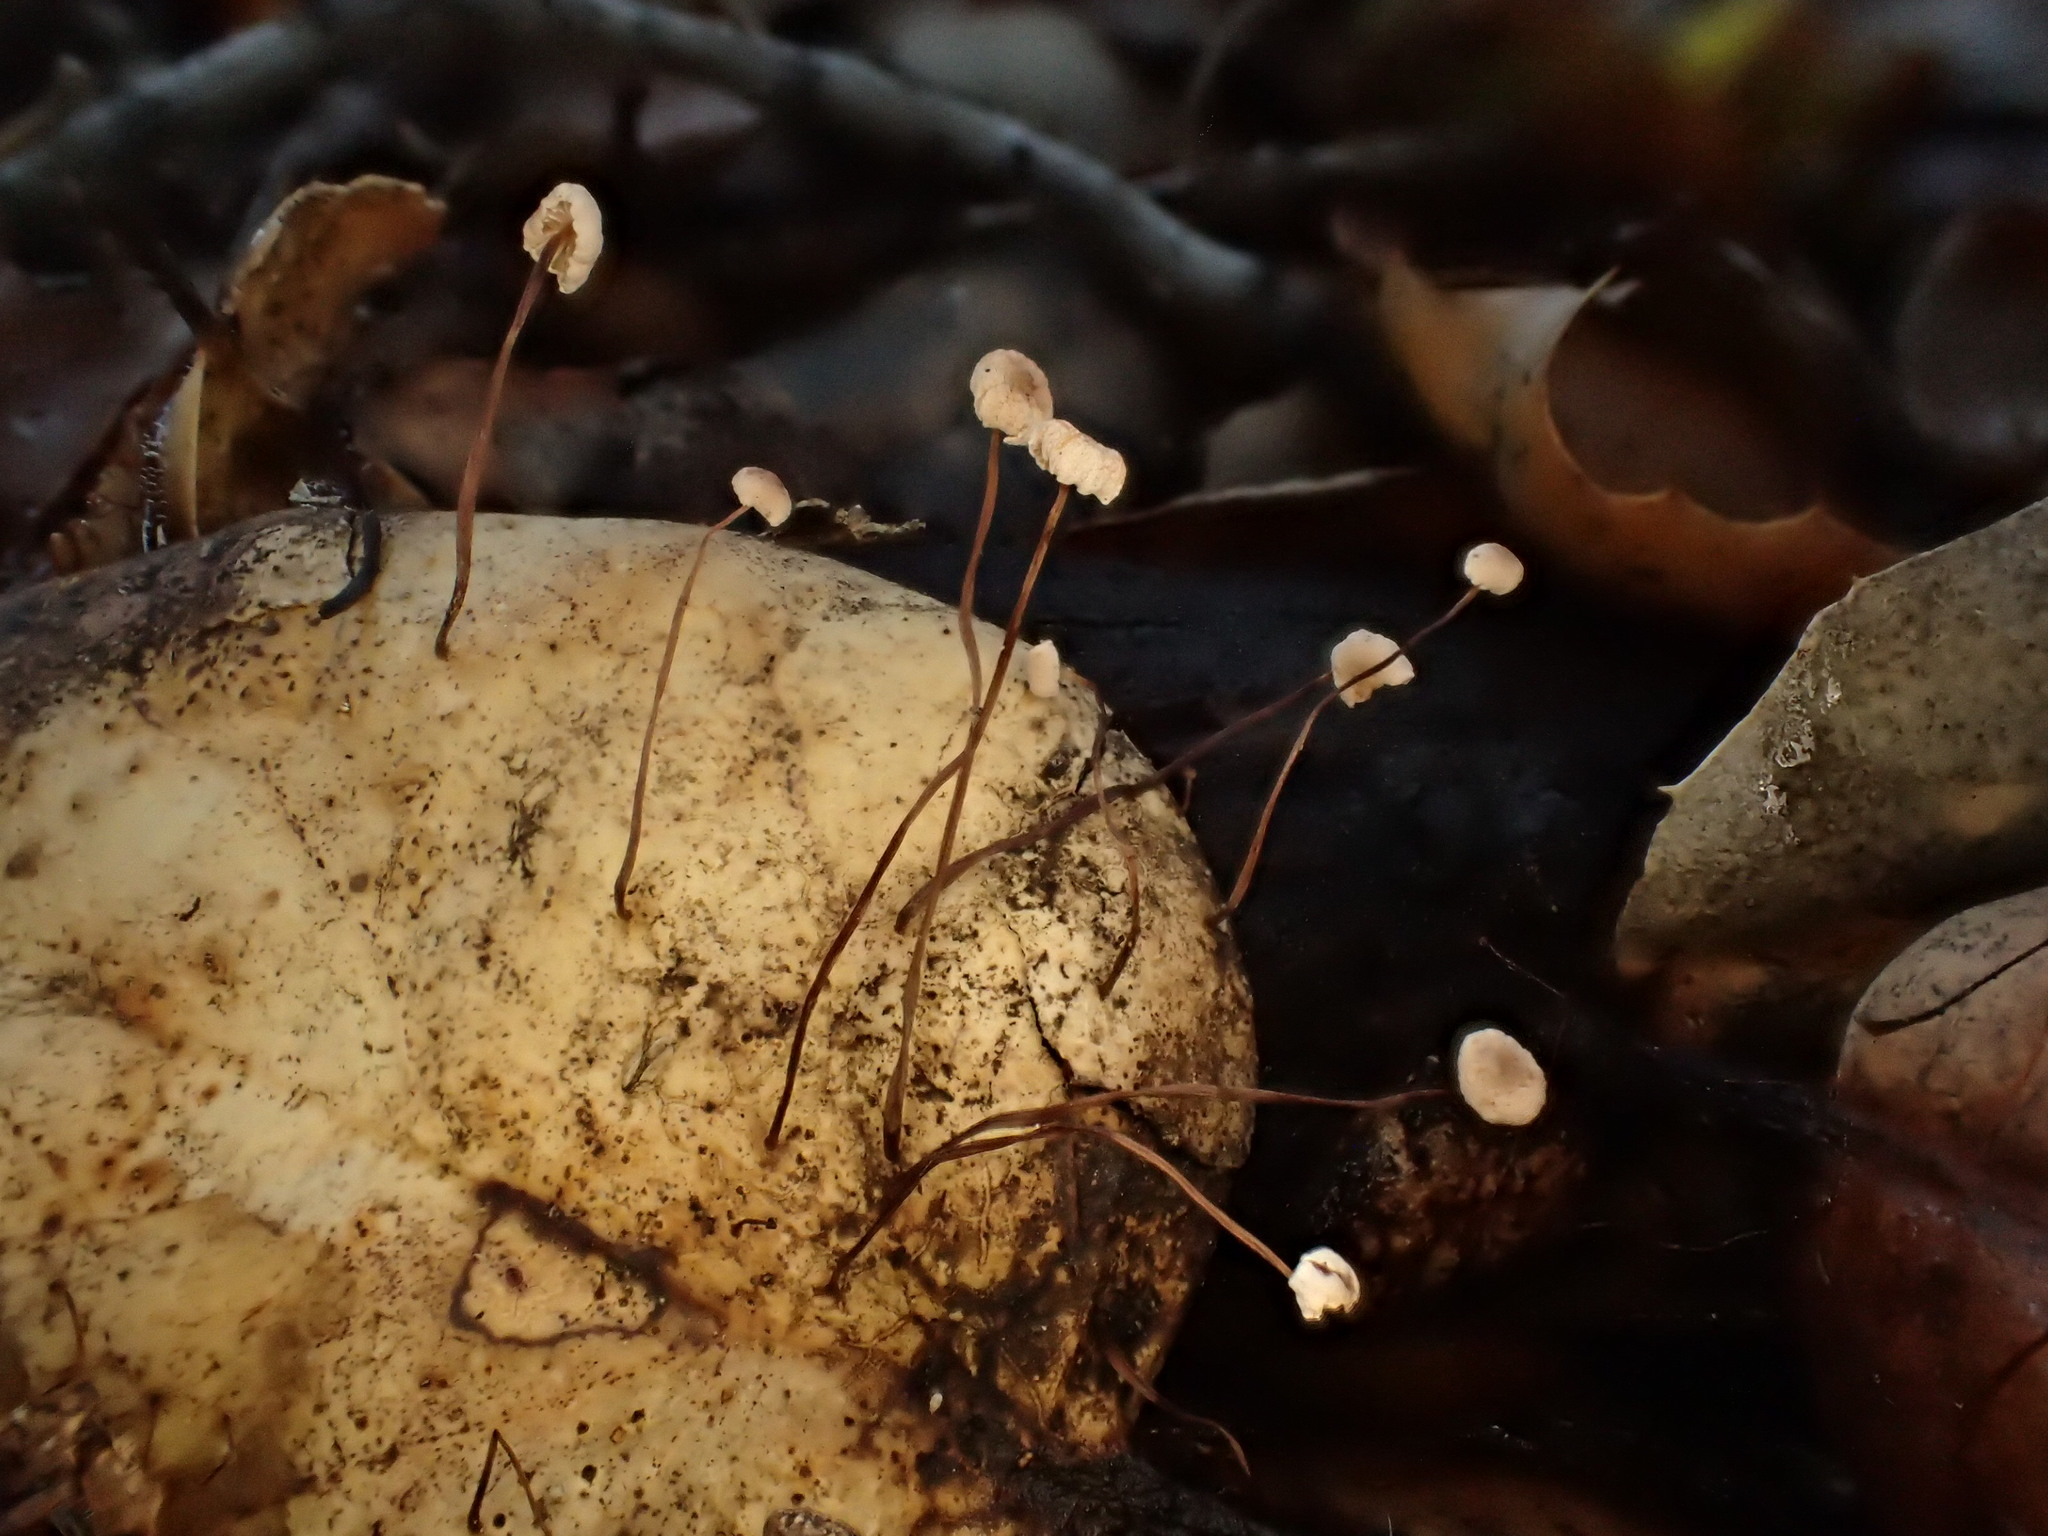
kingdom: Fungi
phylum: Basidiomycota
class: Agaricomycetes
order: Agaricales
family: Omphalotaceae
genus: Collybiopsis
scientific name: Collybiopsis quercophila
